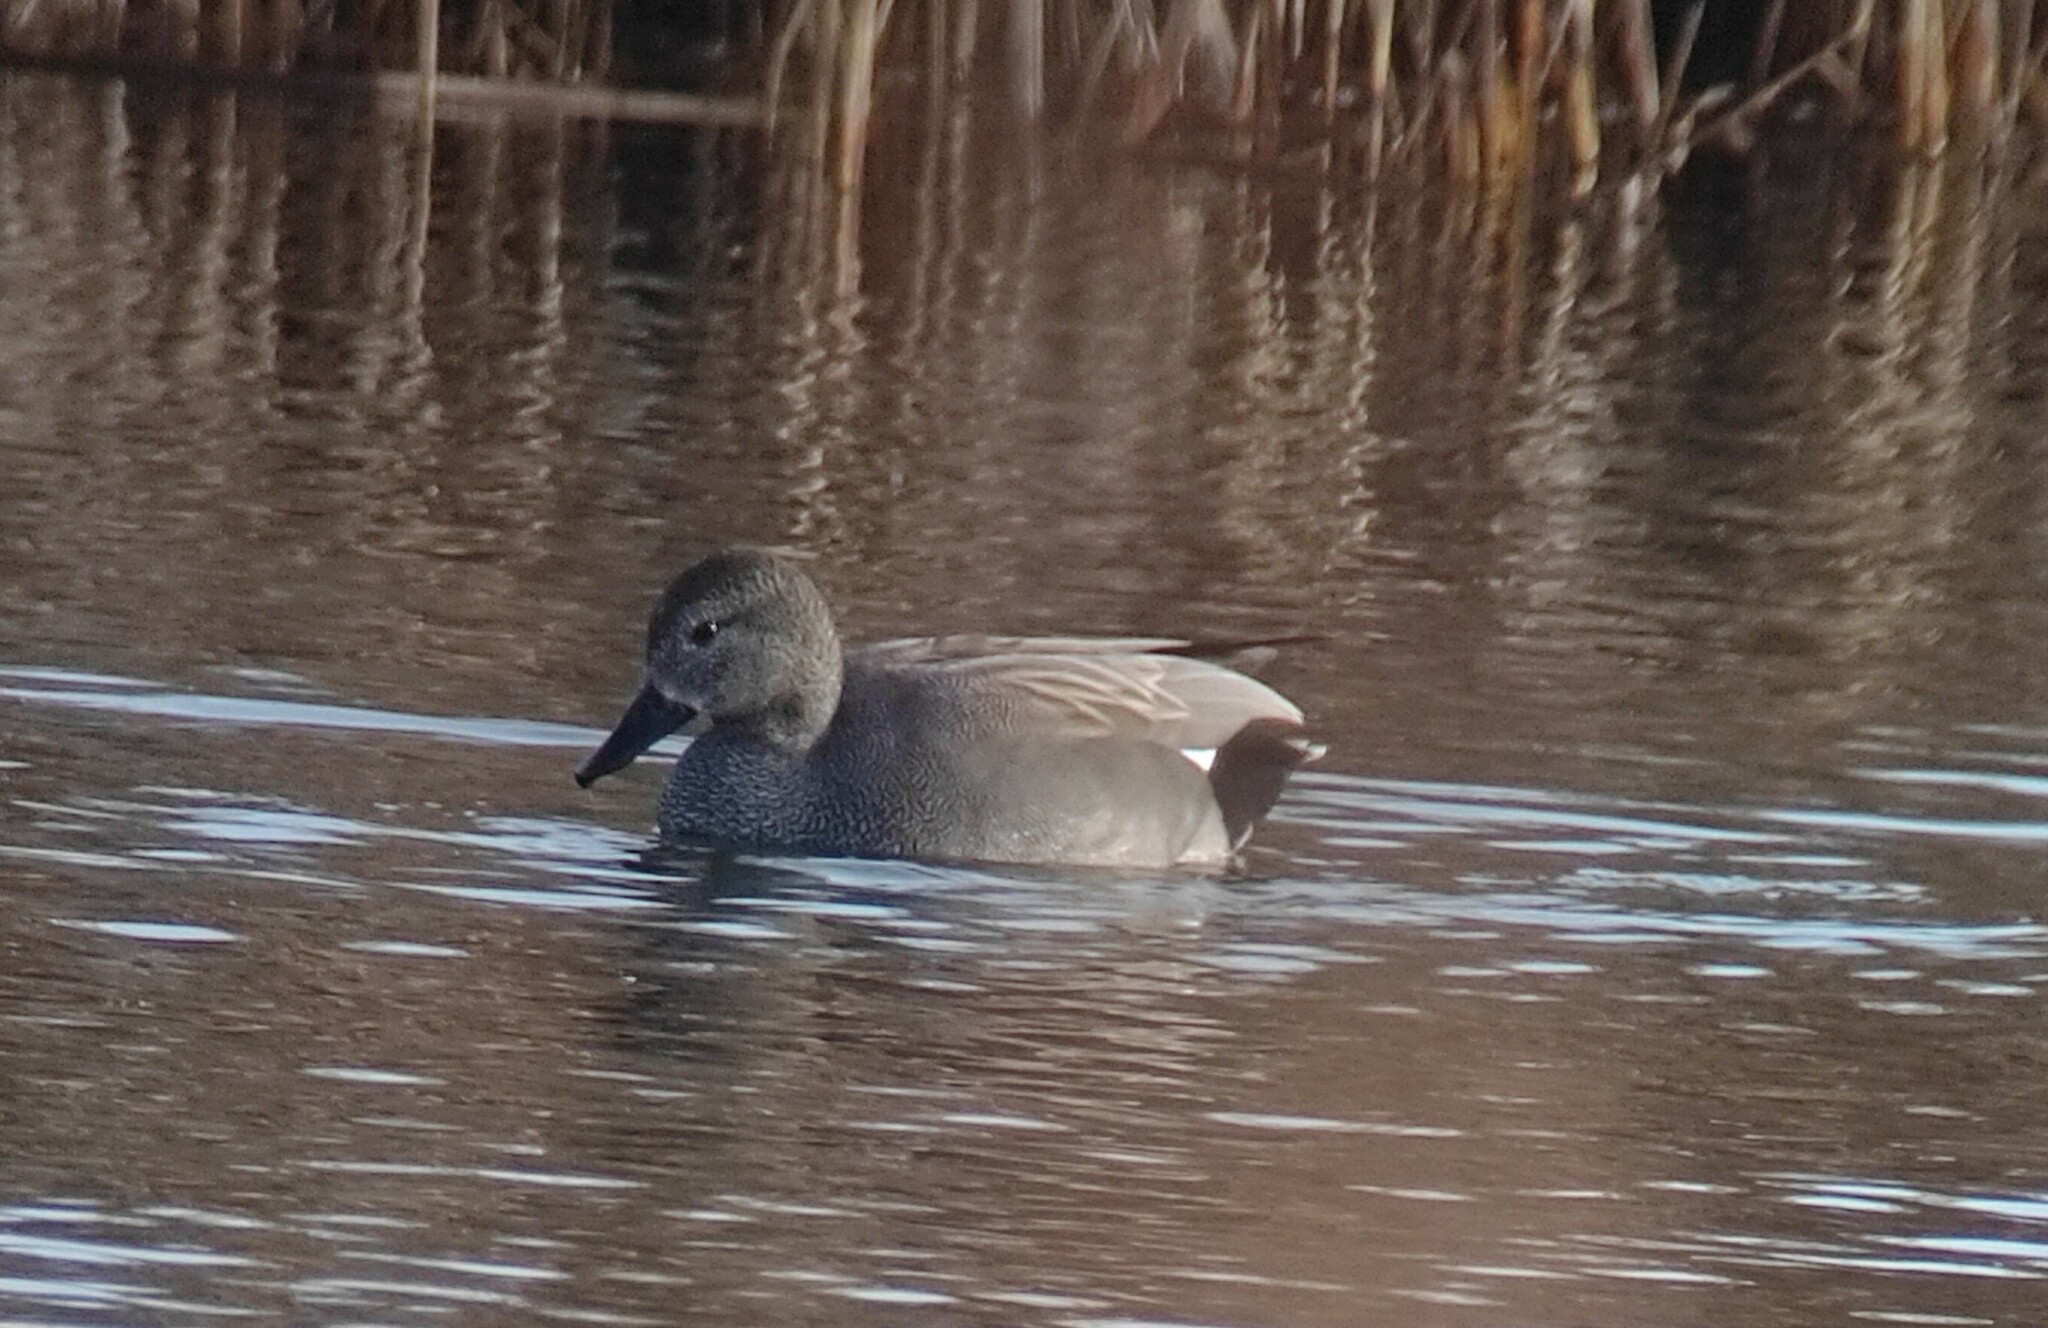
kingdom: Animalia
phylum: Chordata
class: Aves
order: Anseriformes
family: Anatidae
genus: Mareca
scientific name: Mareca strepera
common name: Gadwall
